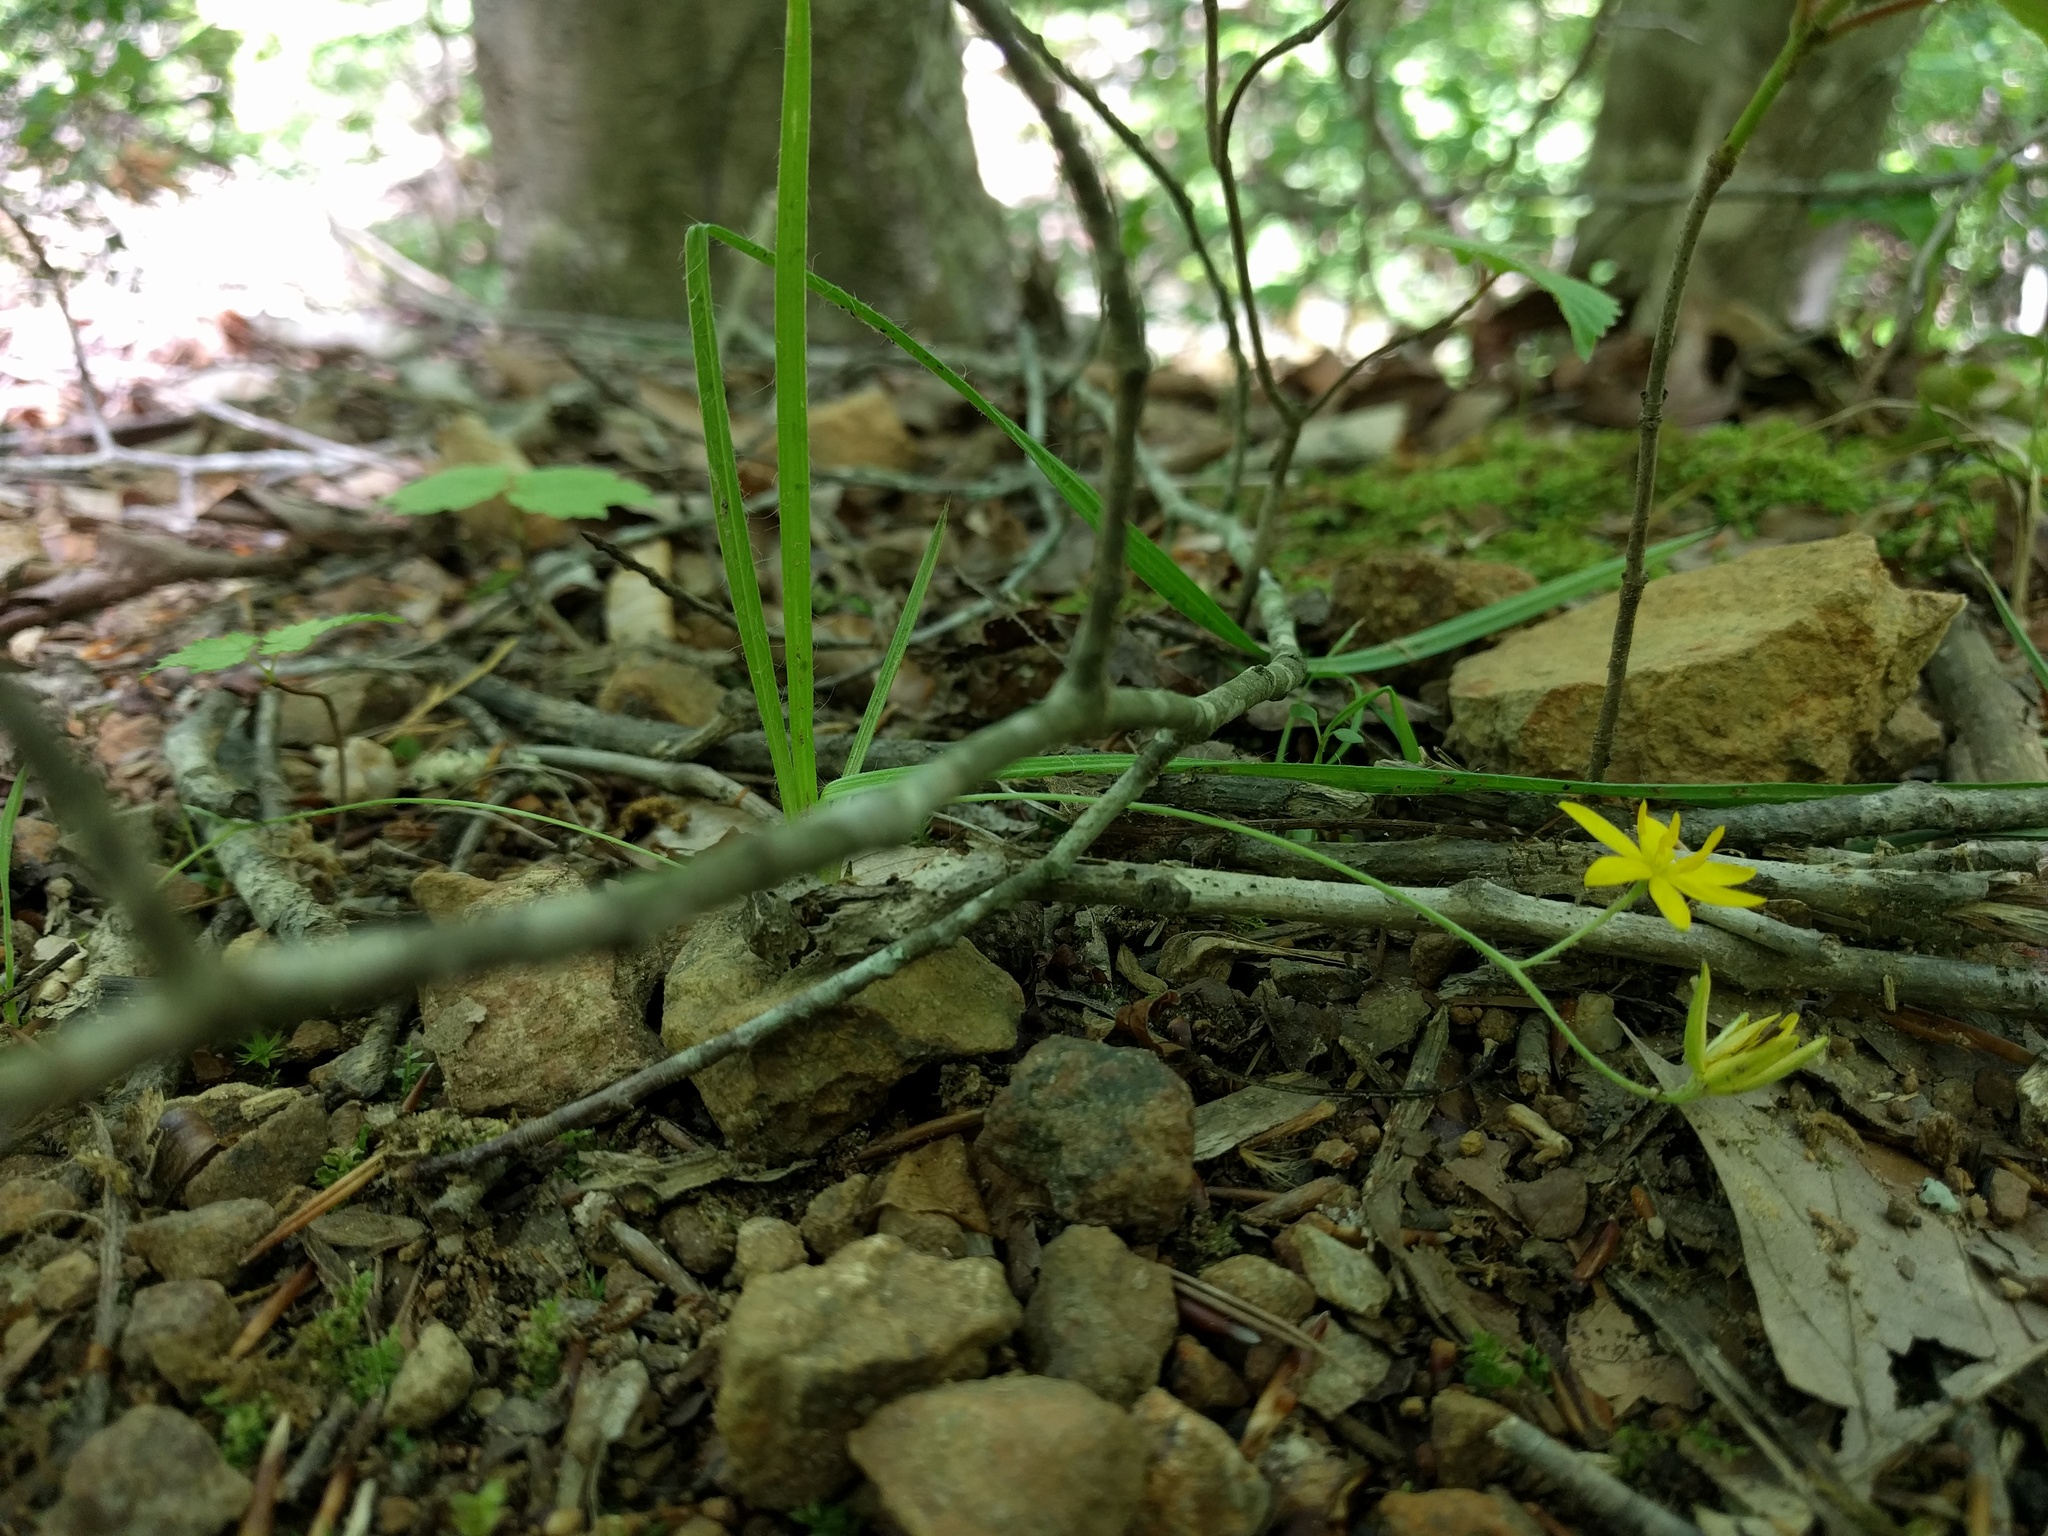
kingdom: Plantae
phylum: Tracheophyta
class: Liliopsida
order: Asparagales
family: Hypoxidaceae
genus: Hypoxis
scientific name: Hypoxis hirsuta
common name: Common goldstar
